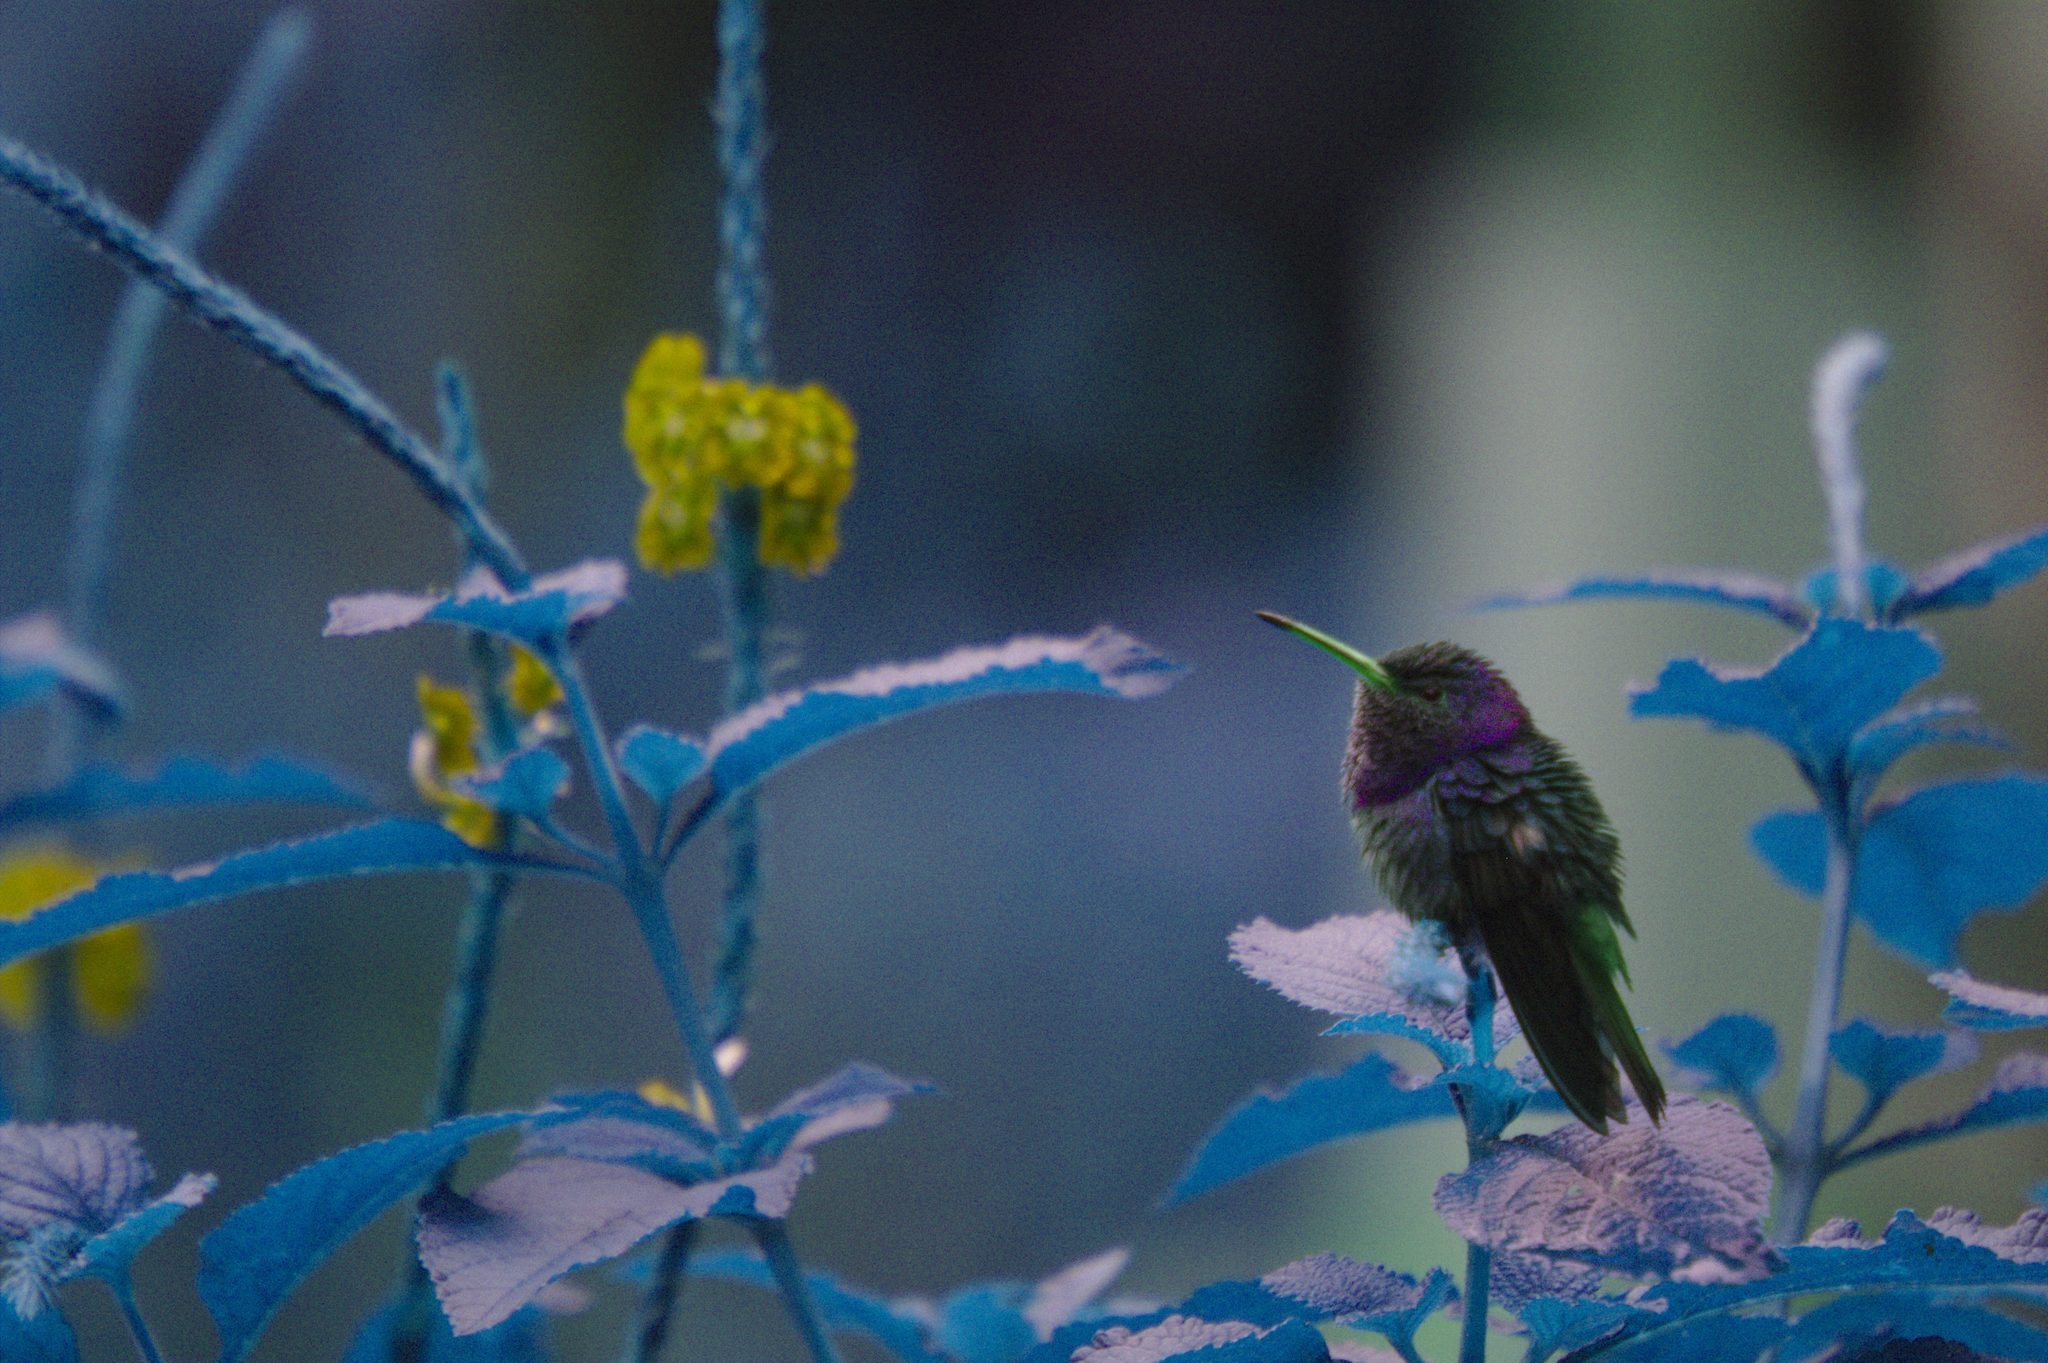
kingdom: Animalia
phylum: Chordata
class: Aves
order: Apodiformes
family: Trochilidae
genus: Amazilia
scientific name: Amazilia tzacatl
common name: Rufous-tailed hummingbird
